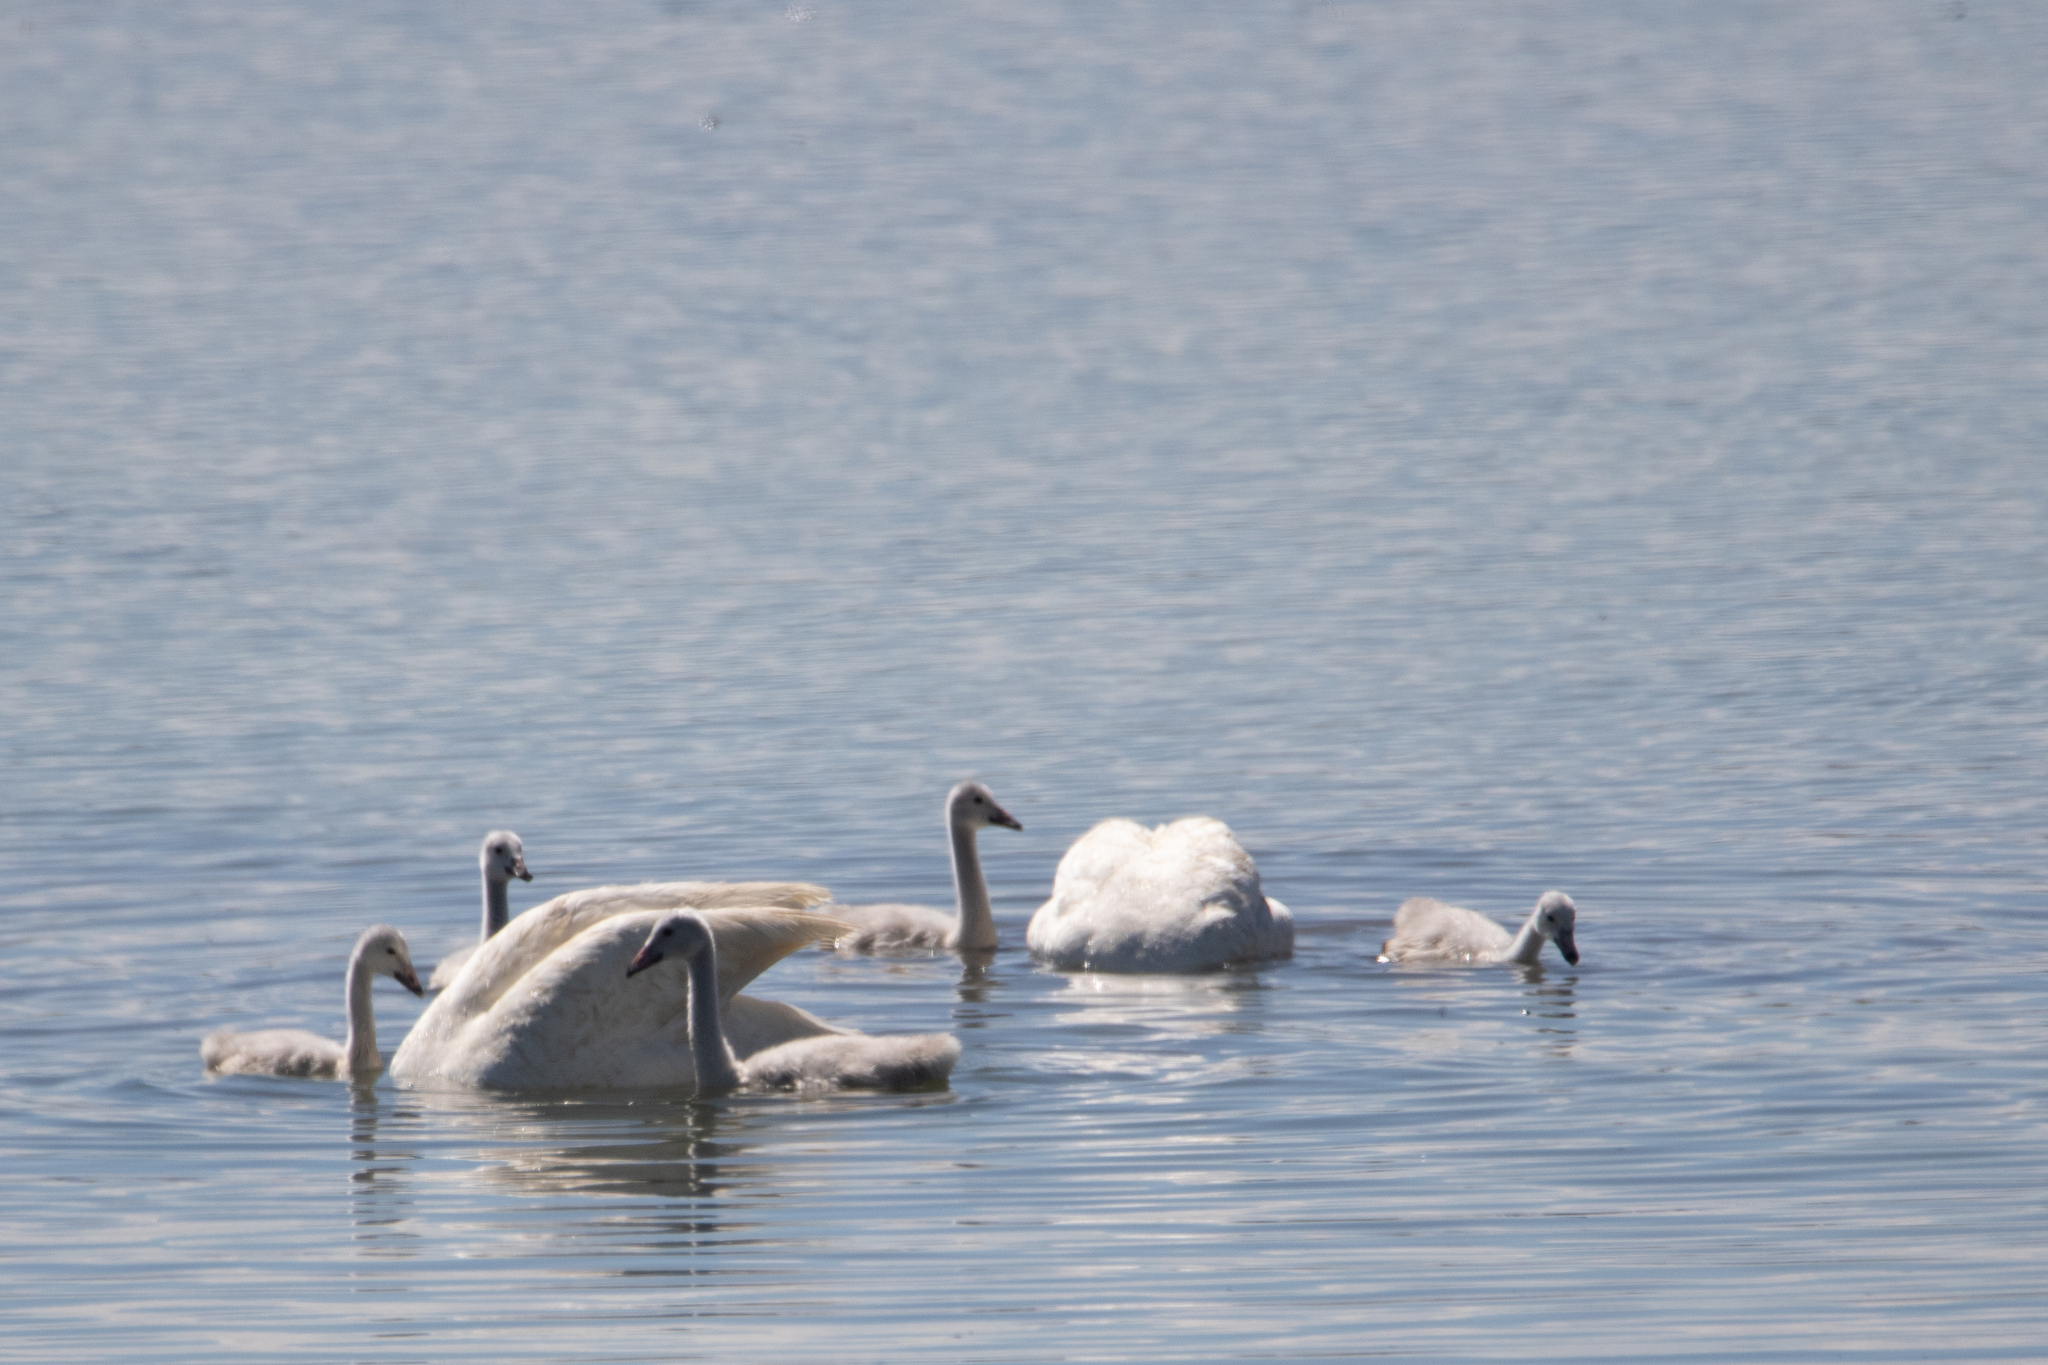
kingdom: Animalia
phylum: Chordata
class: Aves
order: Anseriformes
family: Anatidae
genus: Cygnus
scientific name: Cygnus cygnus
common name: Whooper swan
